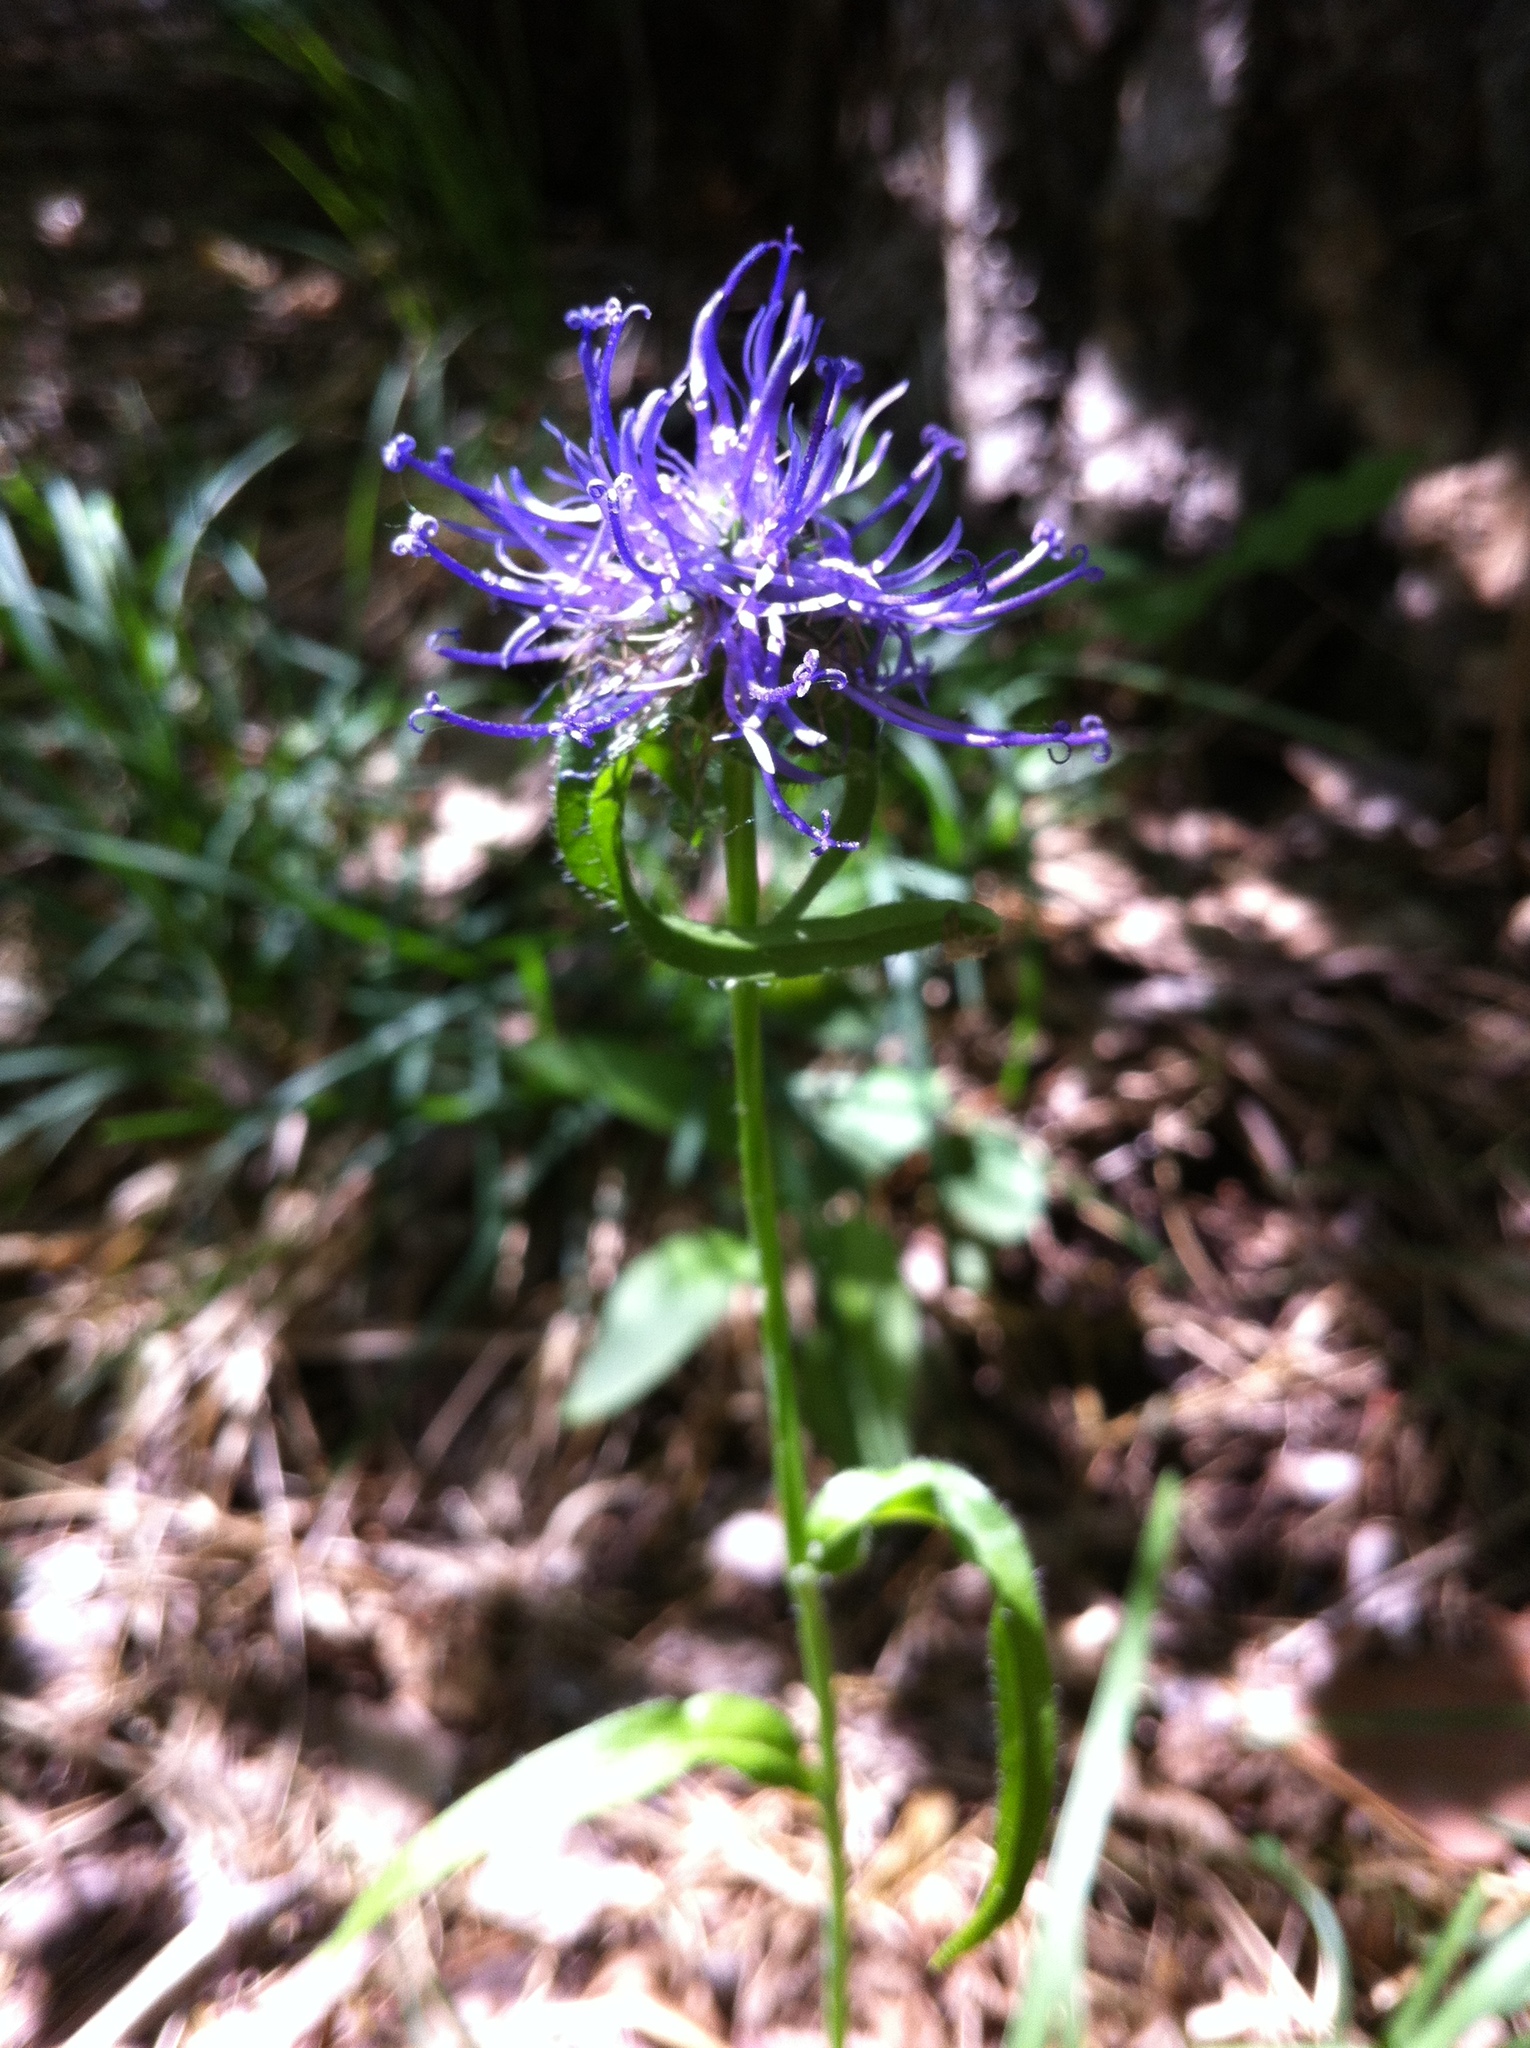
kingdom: Plantae
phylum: Tracheophyta
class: Magnoliopsida
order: Asterales
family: Campanulaceae
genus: Phyteuma
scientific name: Phyteuma orbiculare
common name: Round-headed rampion
